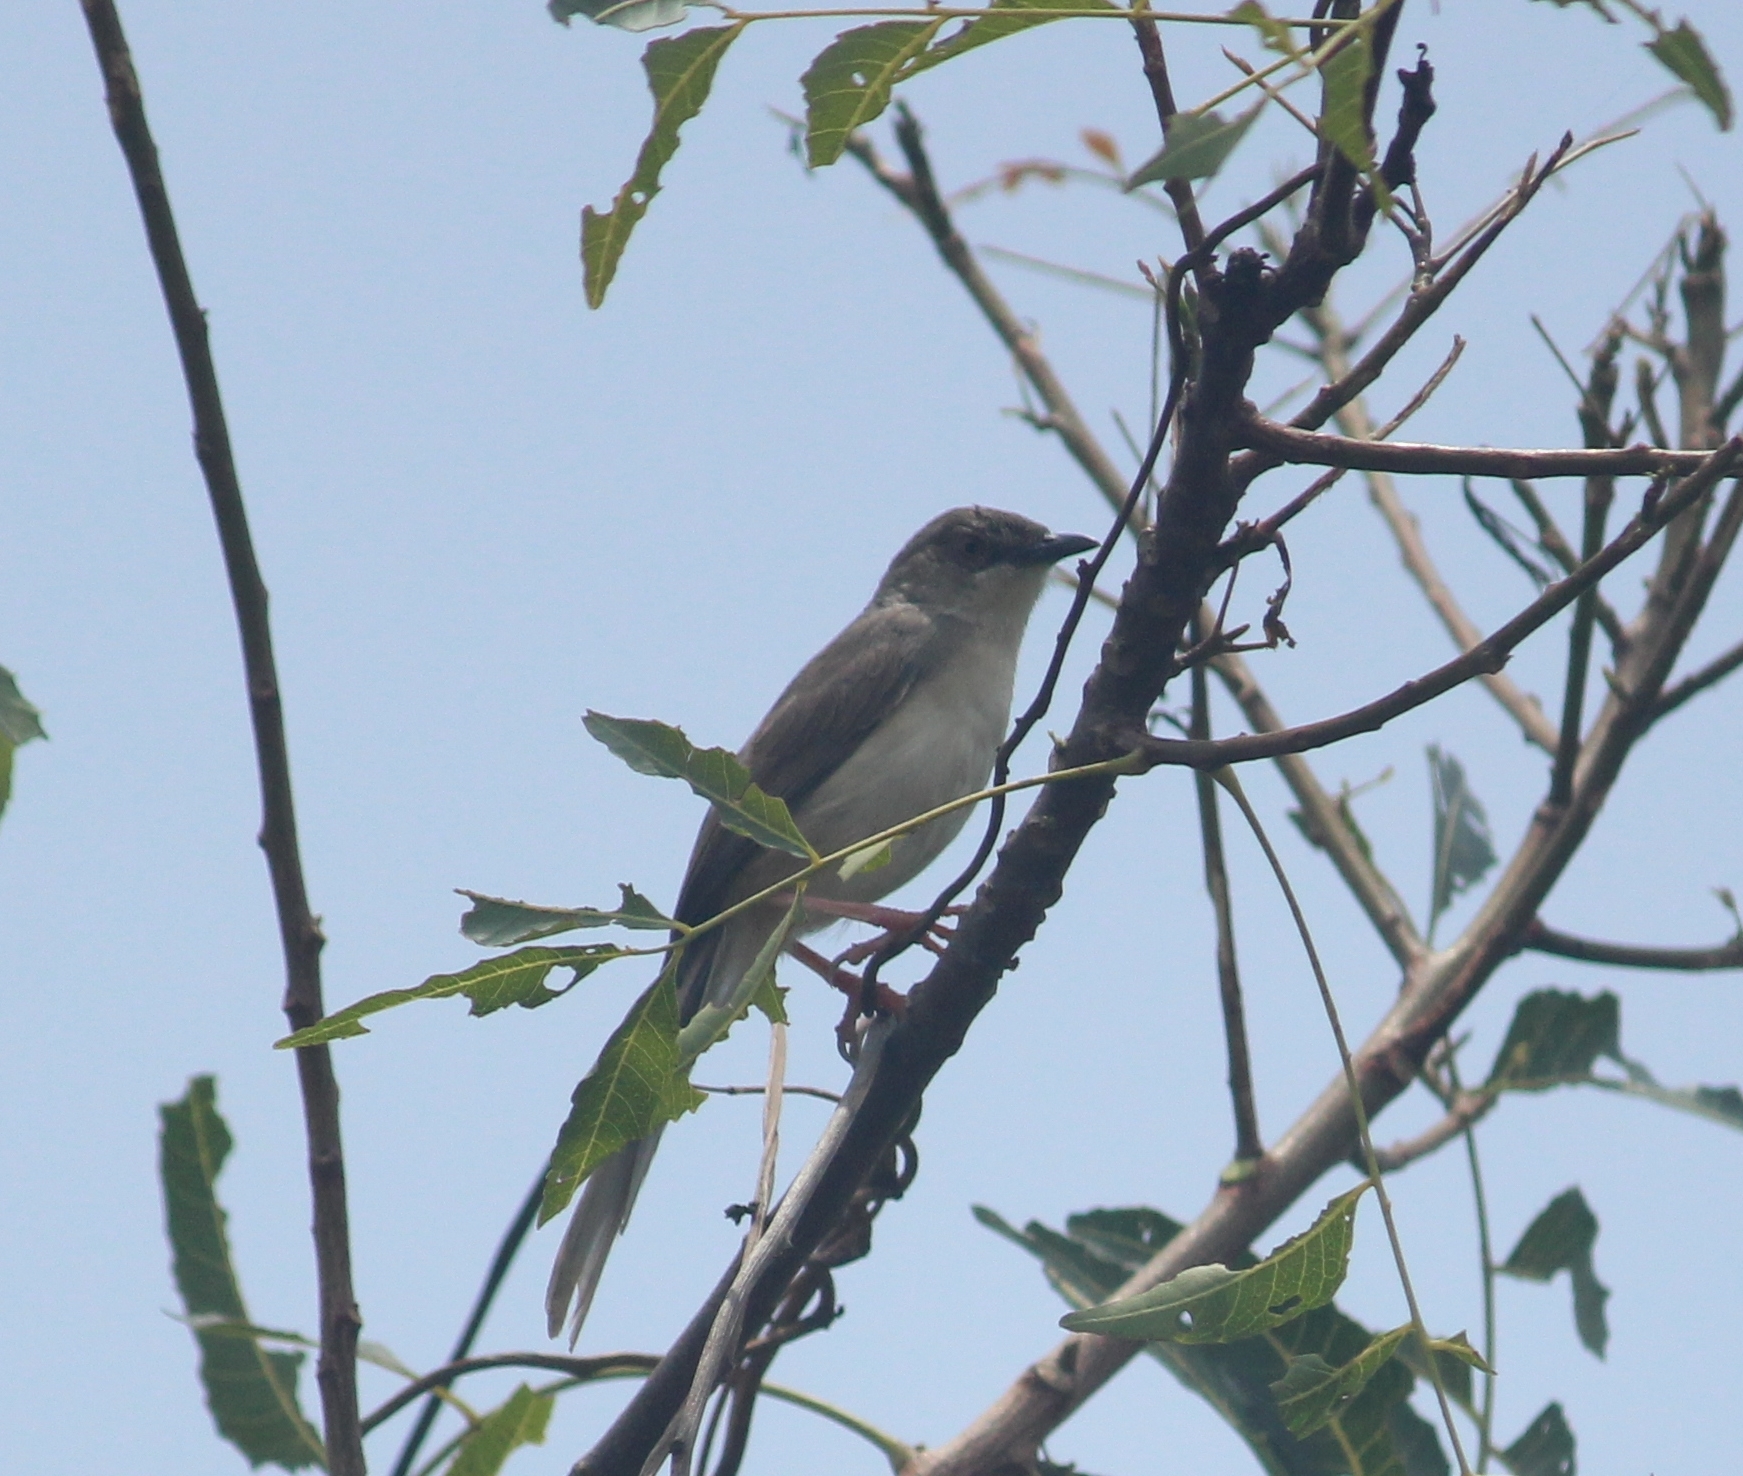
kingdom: Animalia
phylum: Chordata
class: Aves
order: Passeriformes
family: Cisticolidae
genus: Prinia
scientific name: Prinia sylvatica
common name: Jungle prinia
